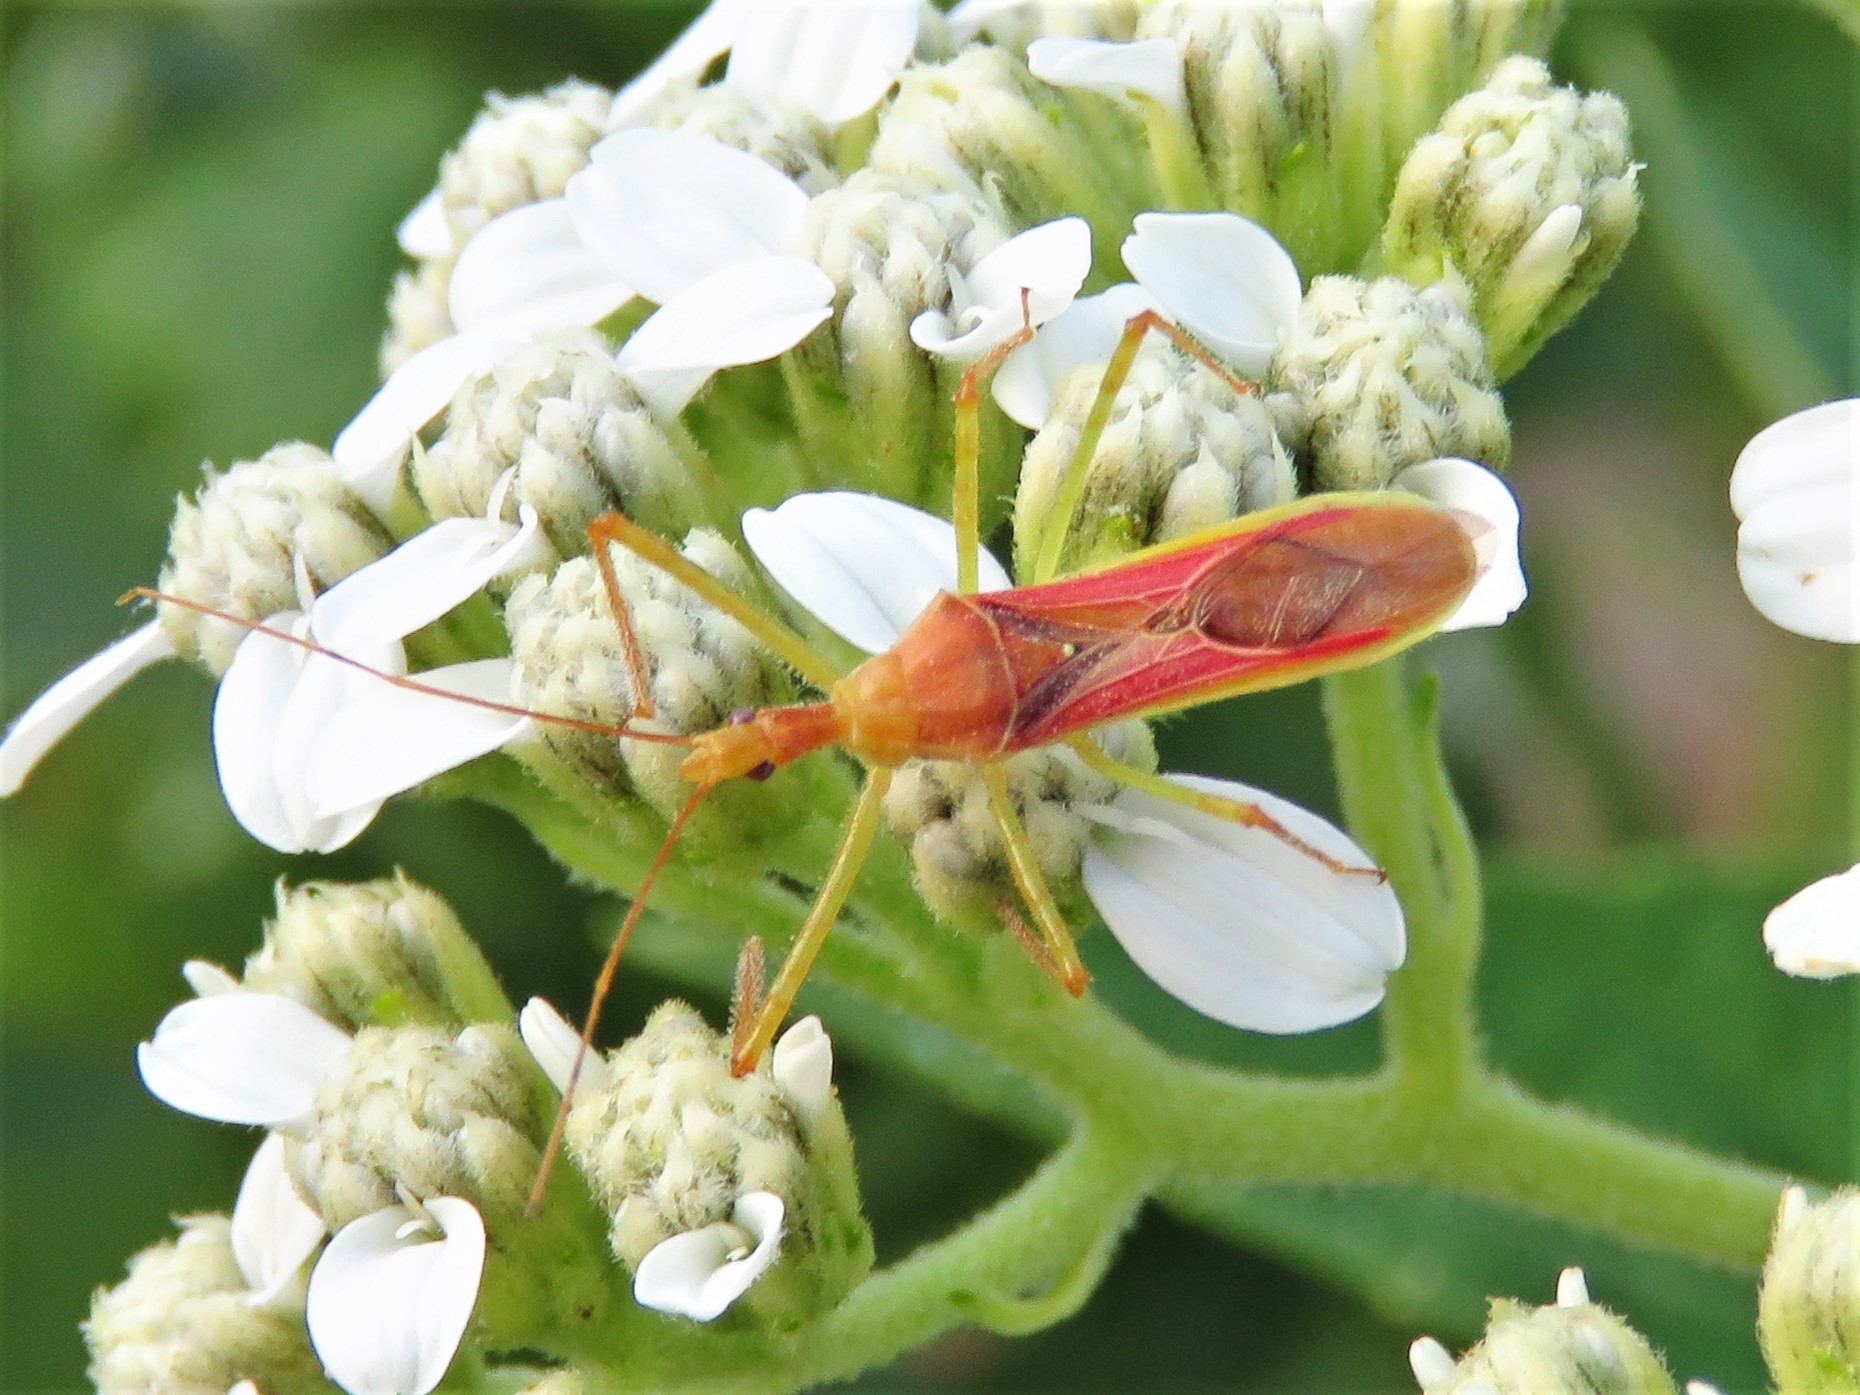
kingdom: Animalia
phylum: Arthropoda
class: Insecta
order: Hemiptera
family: Reduviidae
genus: Zelus
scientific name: Zelus renardii
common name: Assassin bug
